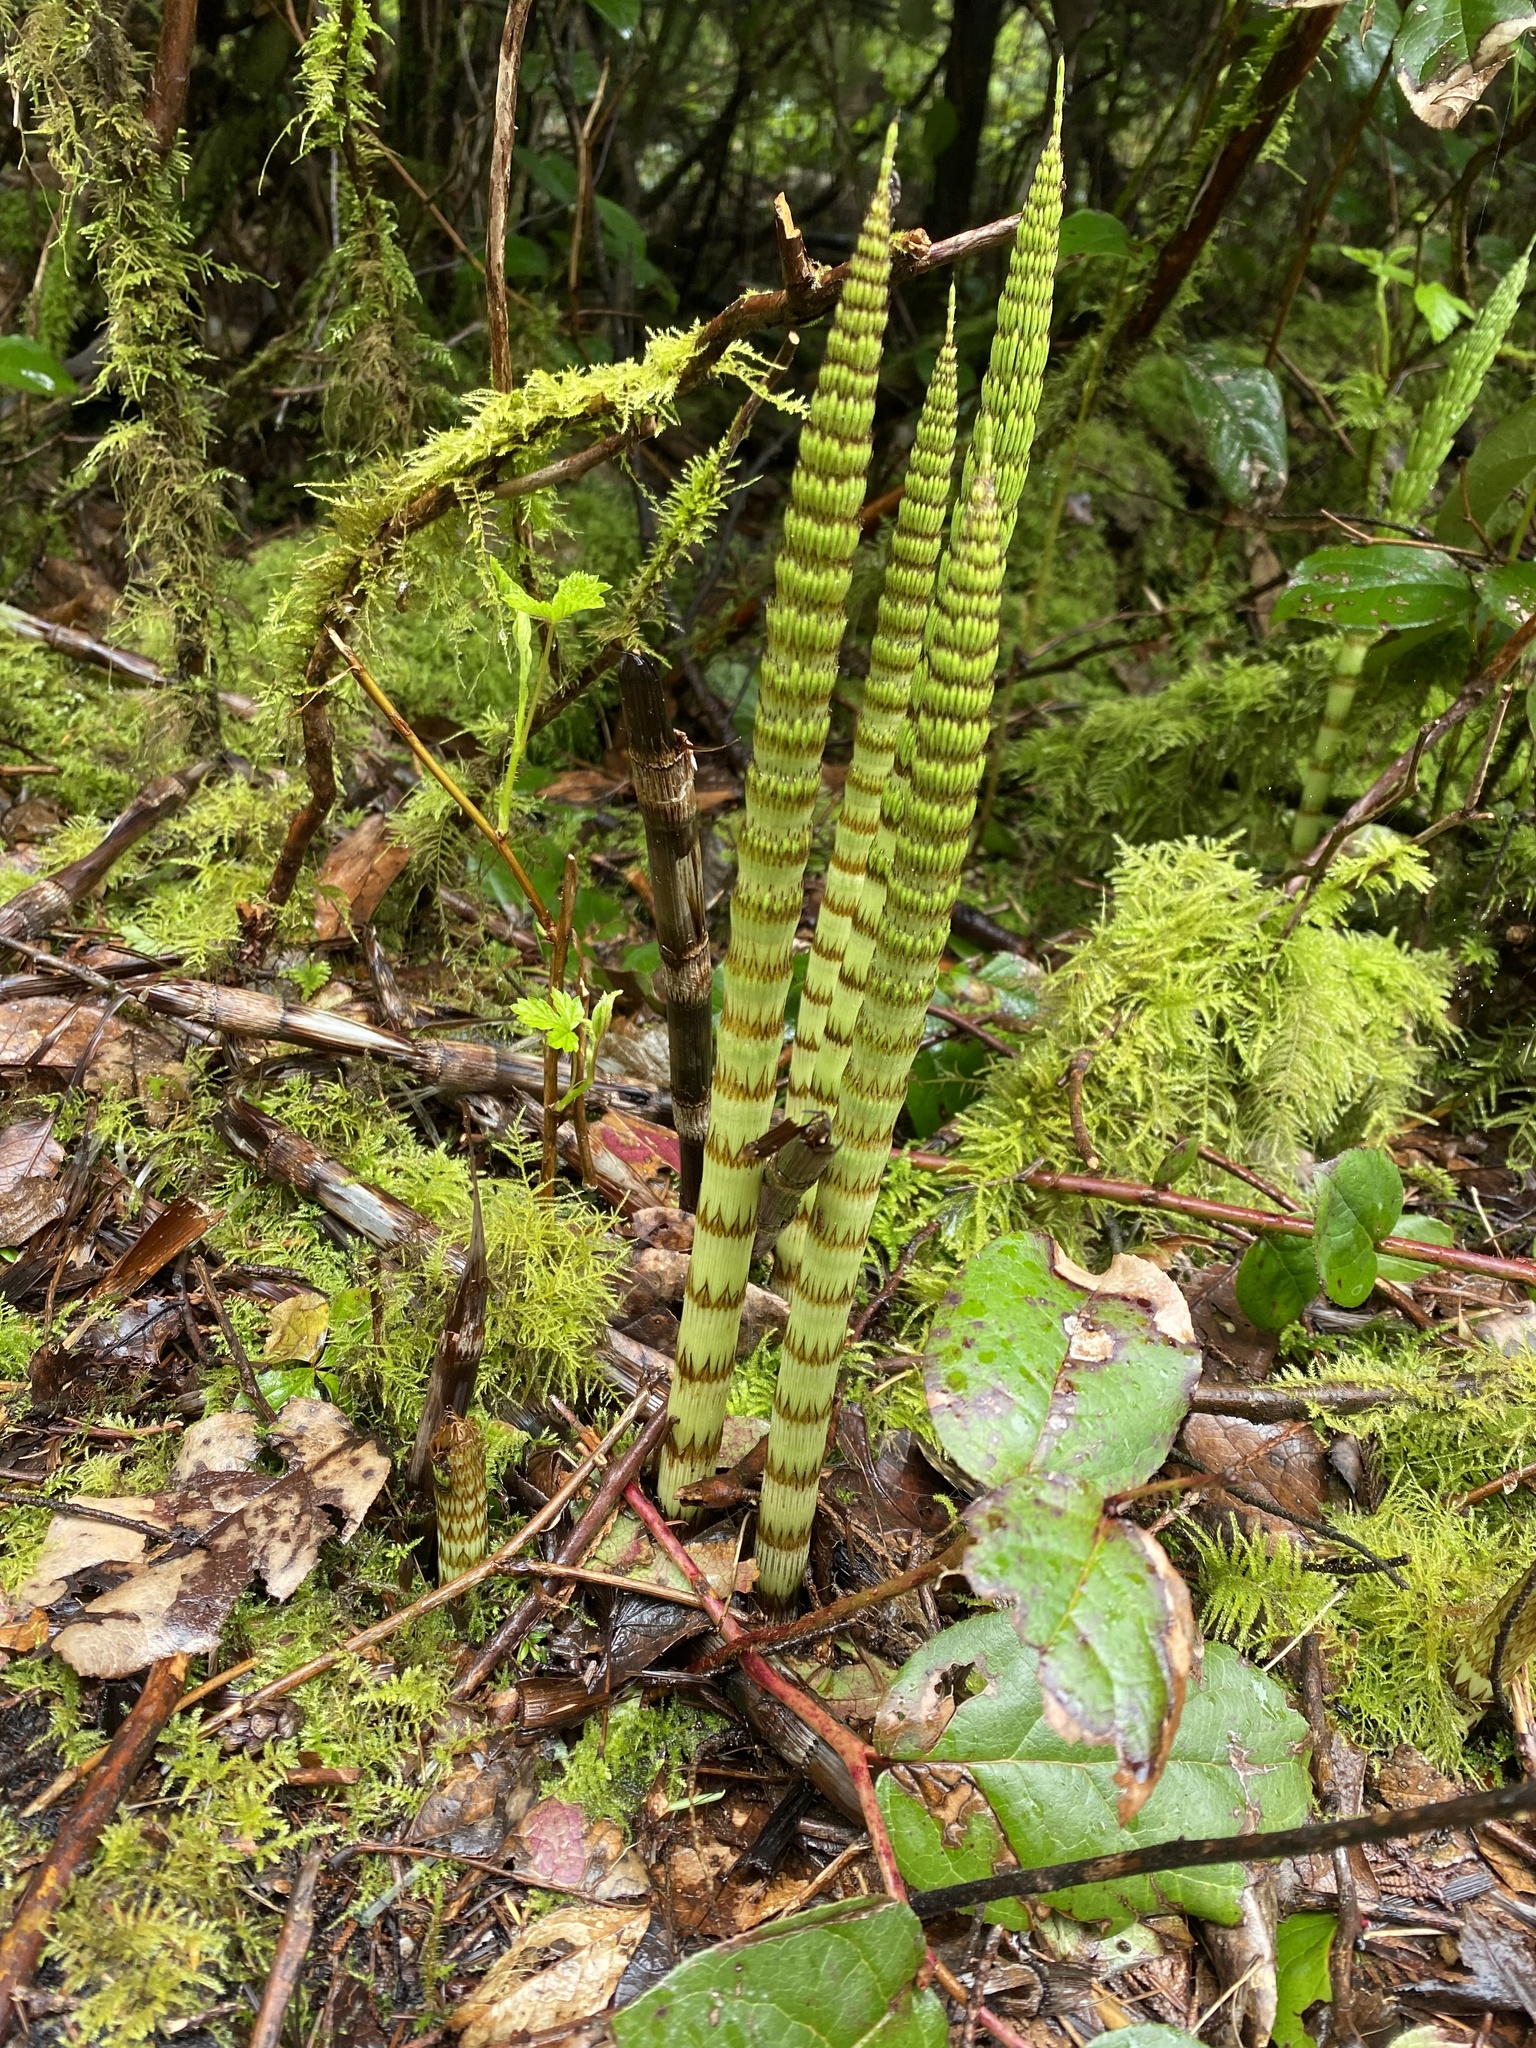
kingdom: Plantae
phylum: Tracheophyta
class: Polypodiopsida
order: Equisetales
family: Equisetaceae
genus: Equisetum
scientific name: Equisetum telmateia
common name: Great horsetail
